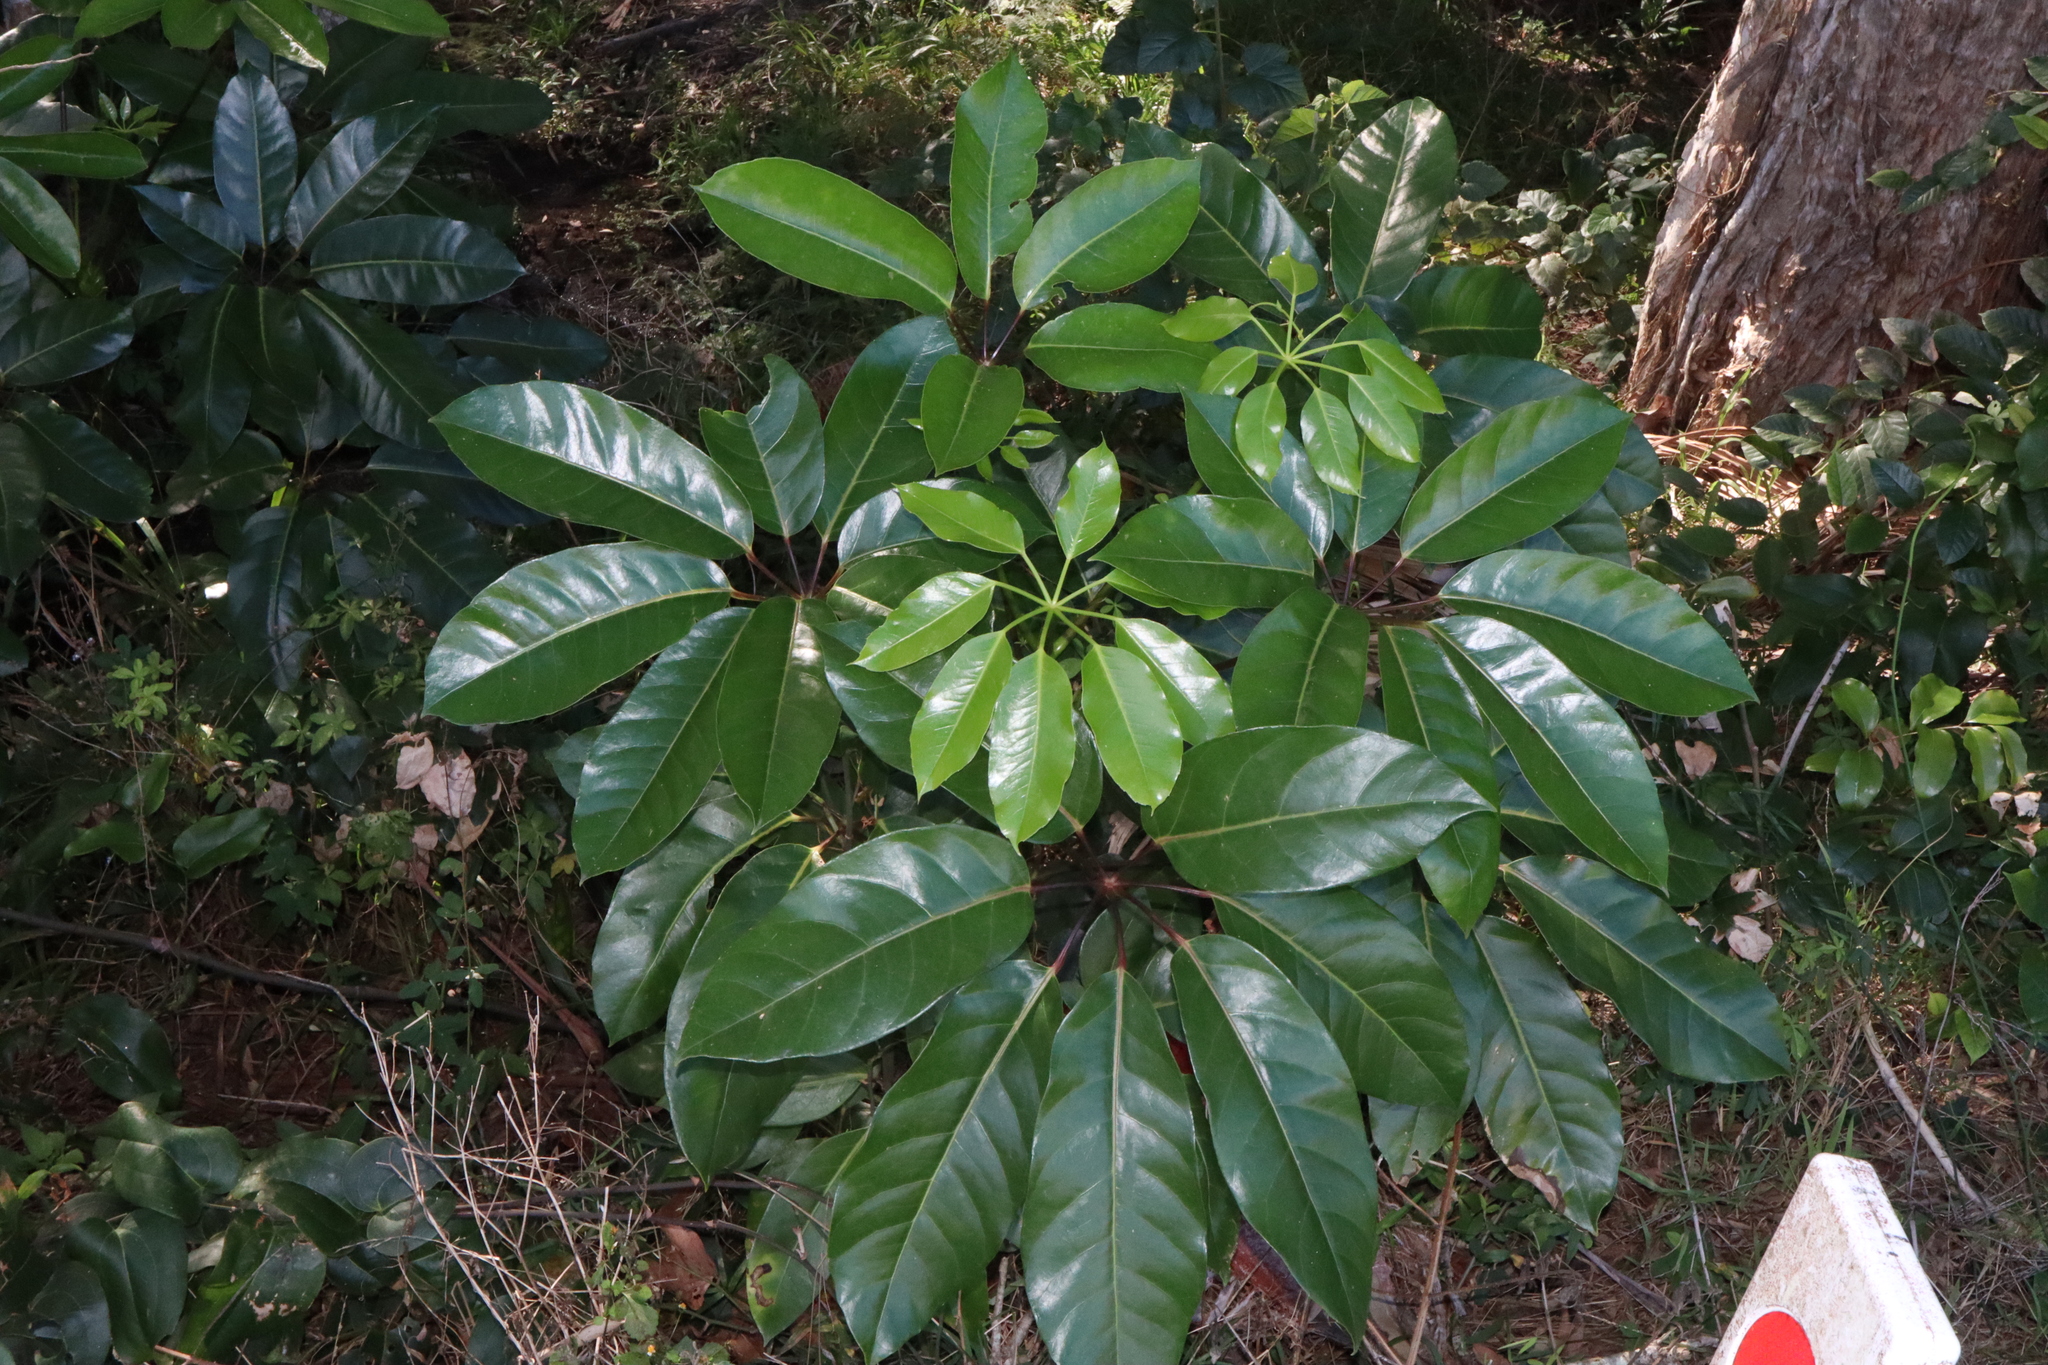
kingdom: Plantae
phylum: Tracheophyta
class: Magnoliopsida
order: Apiales
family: Araliaceae
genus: Heptapleurum
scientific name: Heptapleurum actinophyllum
